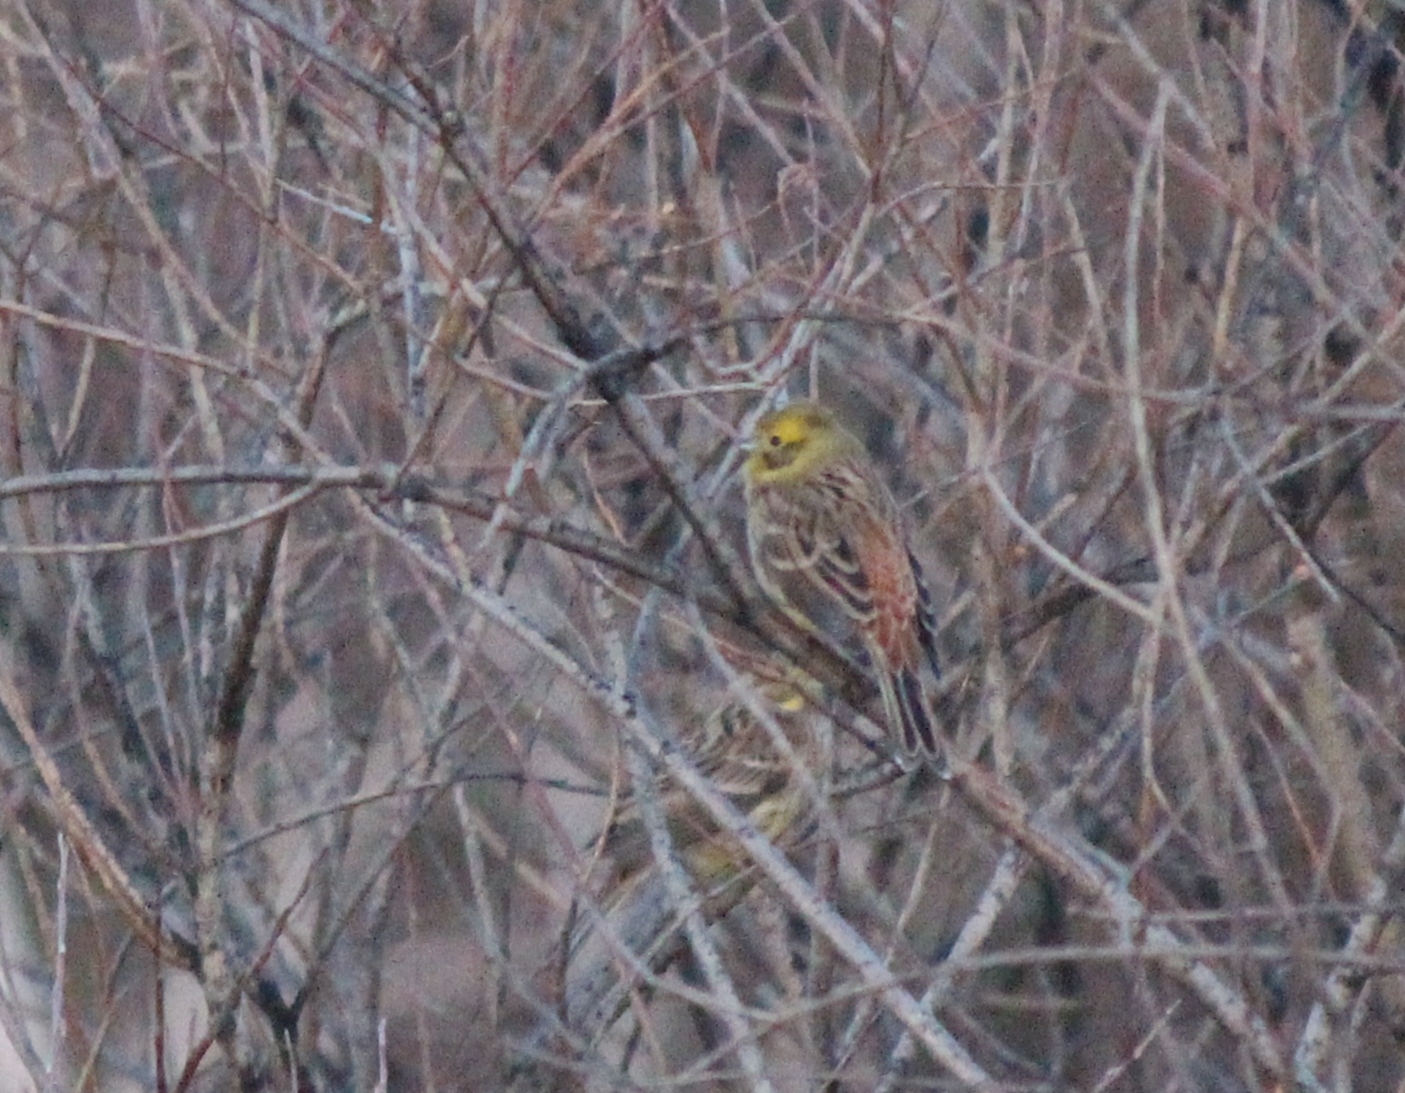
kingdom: Animalia
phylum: Chordata
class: Aves
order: Passeriformes
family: Emberizidae
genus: Emberiza
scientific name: Emberiza citrinella
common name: Yellowhammer
